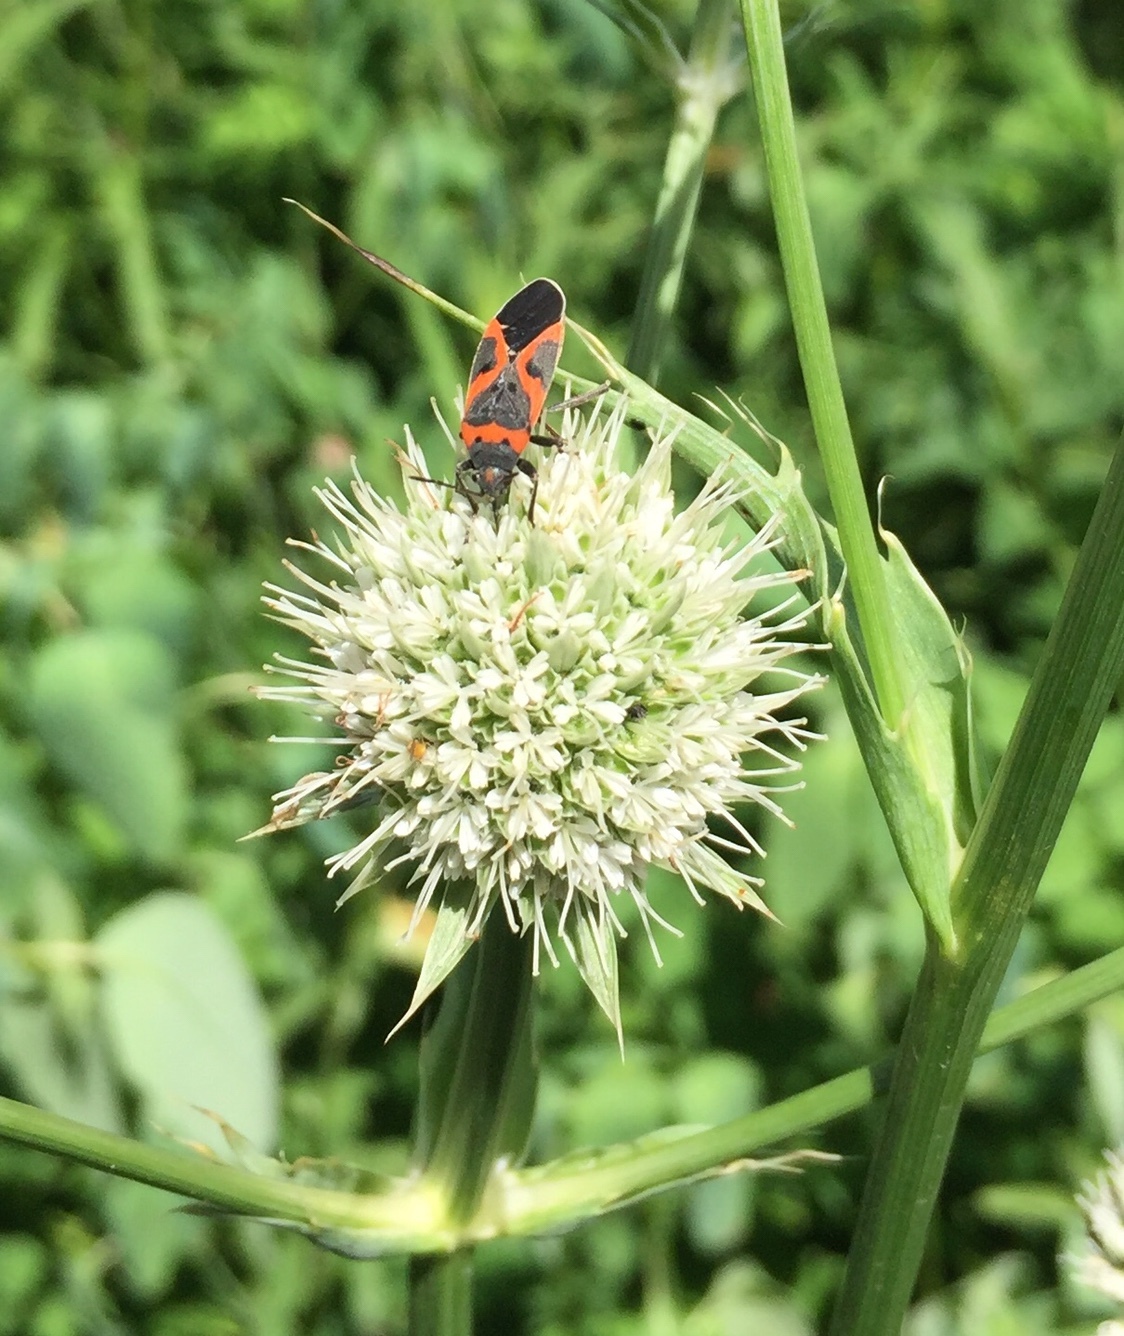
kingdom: Animalia
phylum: Arthropoda
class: Insecta
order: Hemiptera
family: Lygaeidae
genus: Lygaeus
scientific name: Lygaeus kalmii
